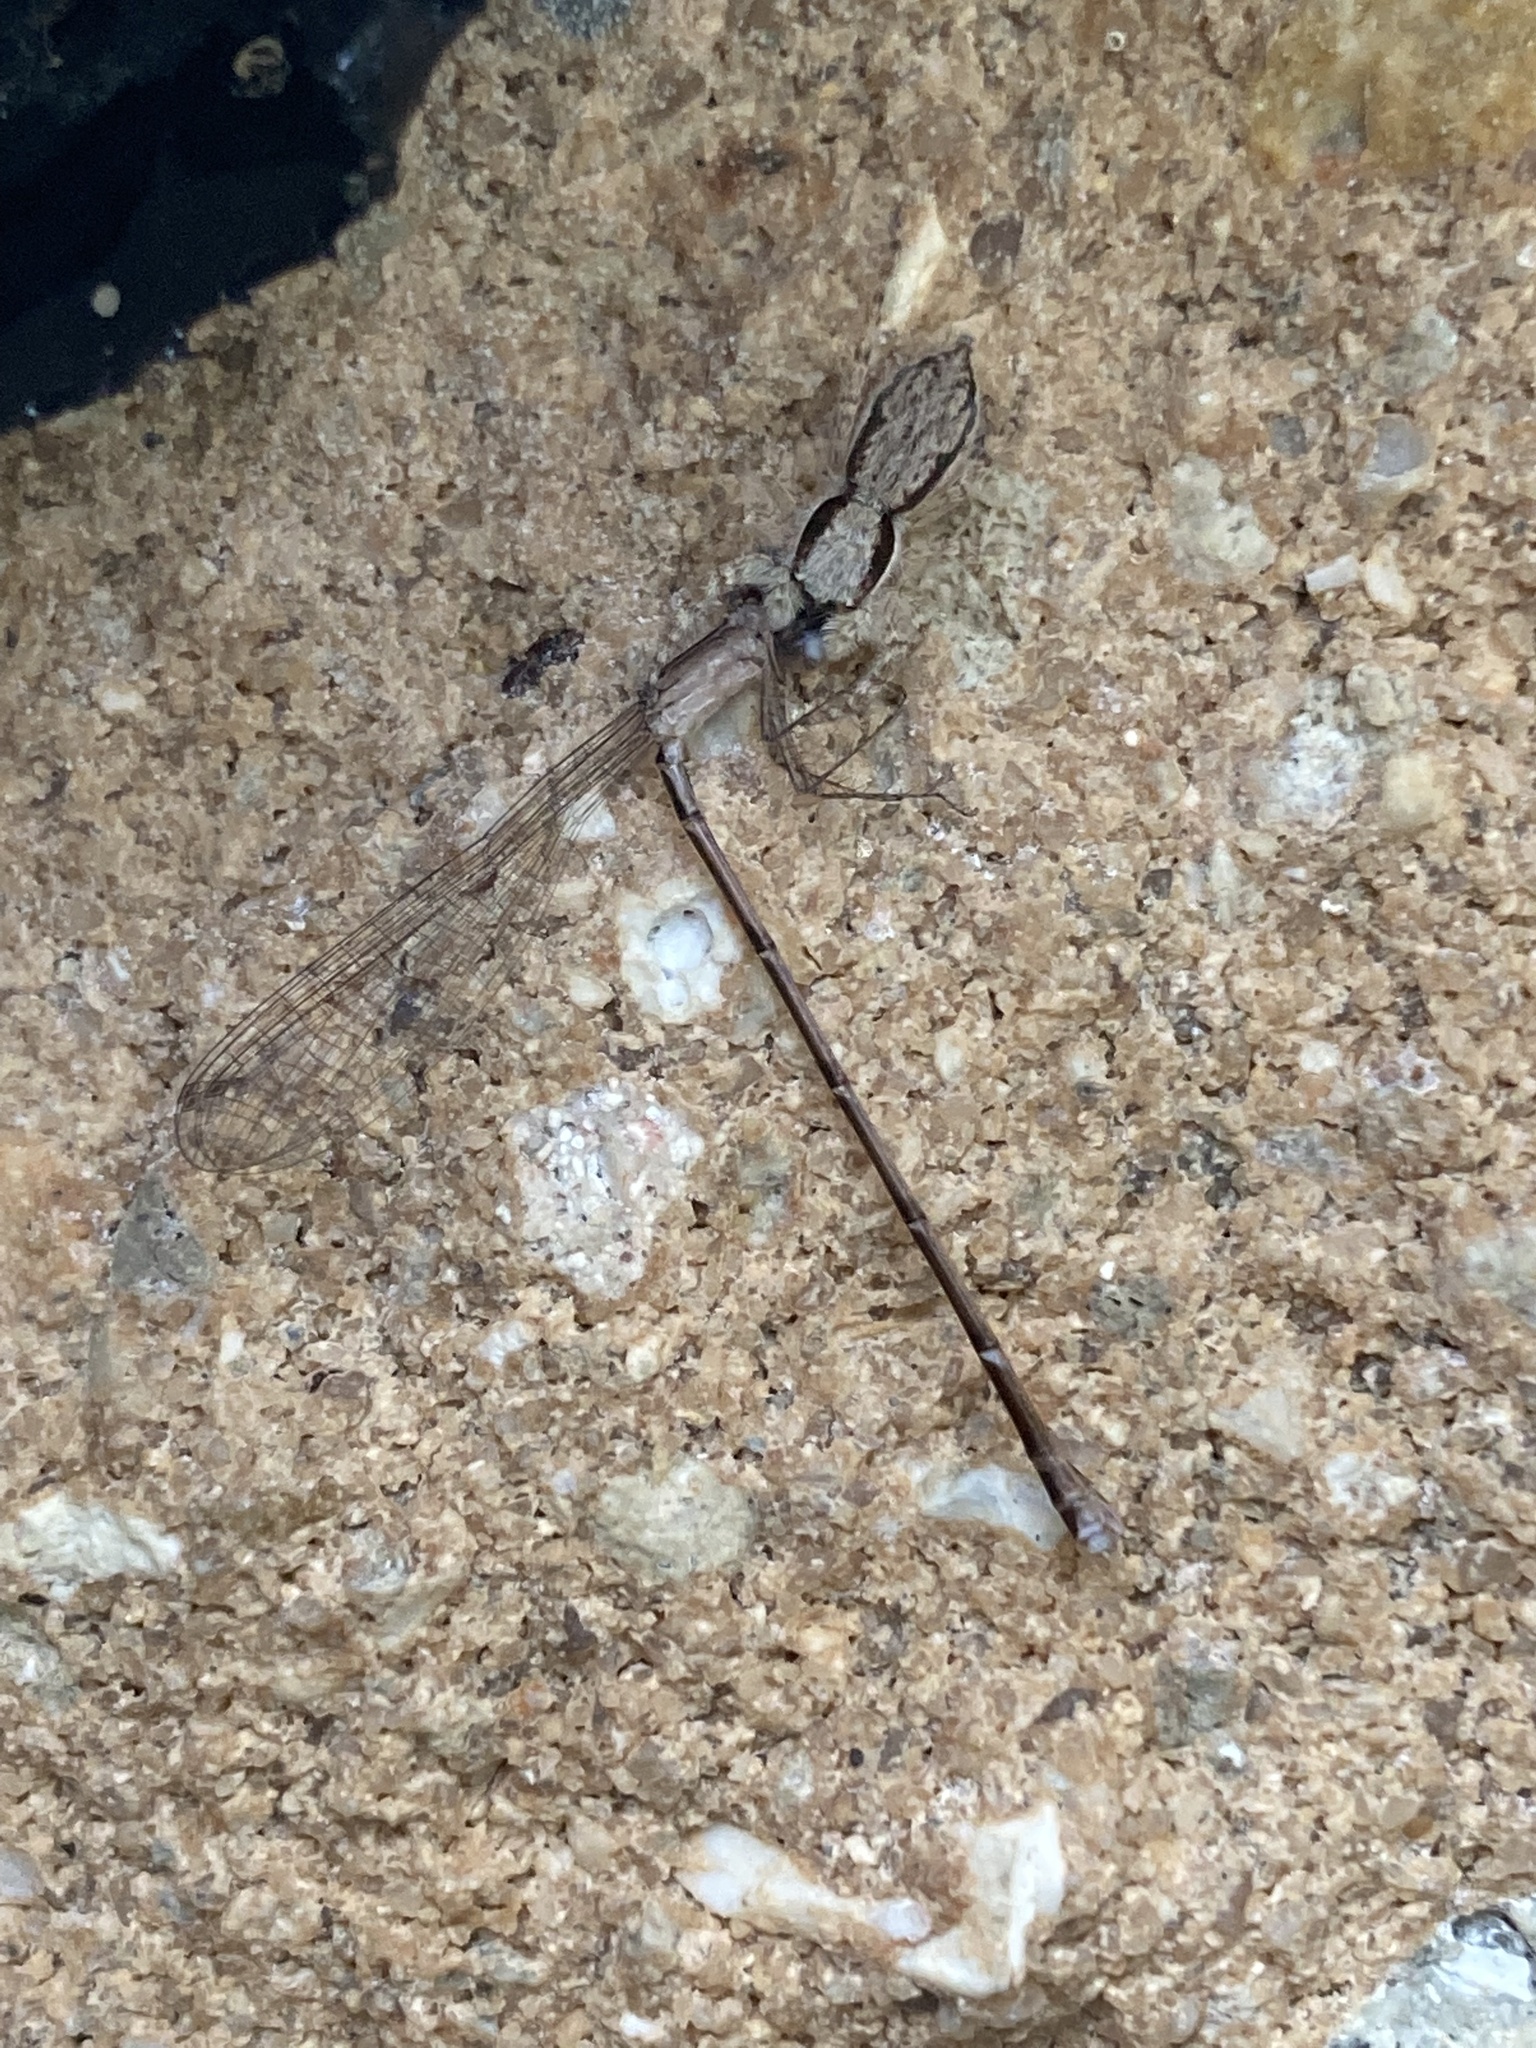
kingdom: Animalia
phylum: Arthropoda
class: Arachnida
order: Araneae
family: Salticidae
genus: Menemerus
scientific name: Menemerus bivittatus
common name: Gray wall jumper
